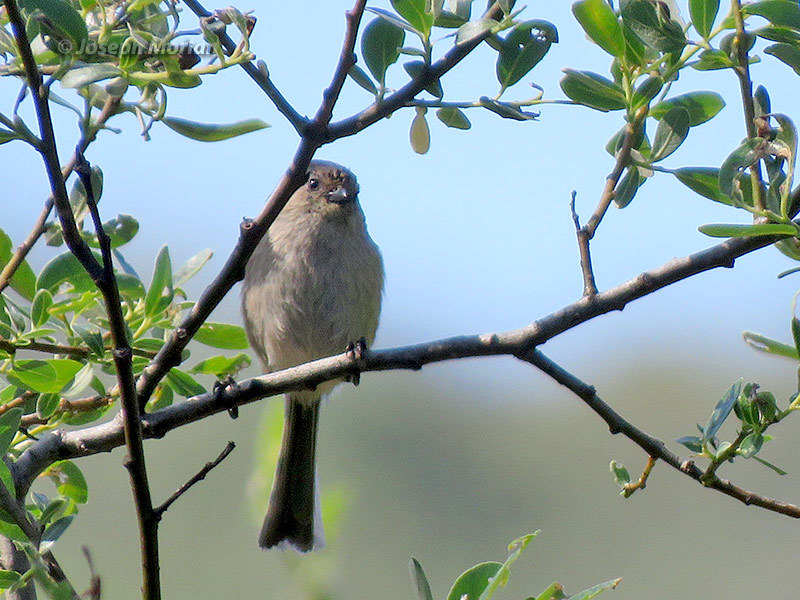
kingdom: Animalia
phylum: Chordata
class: Aves
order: Passeriformes
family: Aegithalidae
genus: Psaltriparus
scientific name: Psaltriparus minimus
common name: American bushtit
